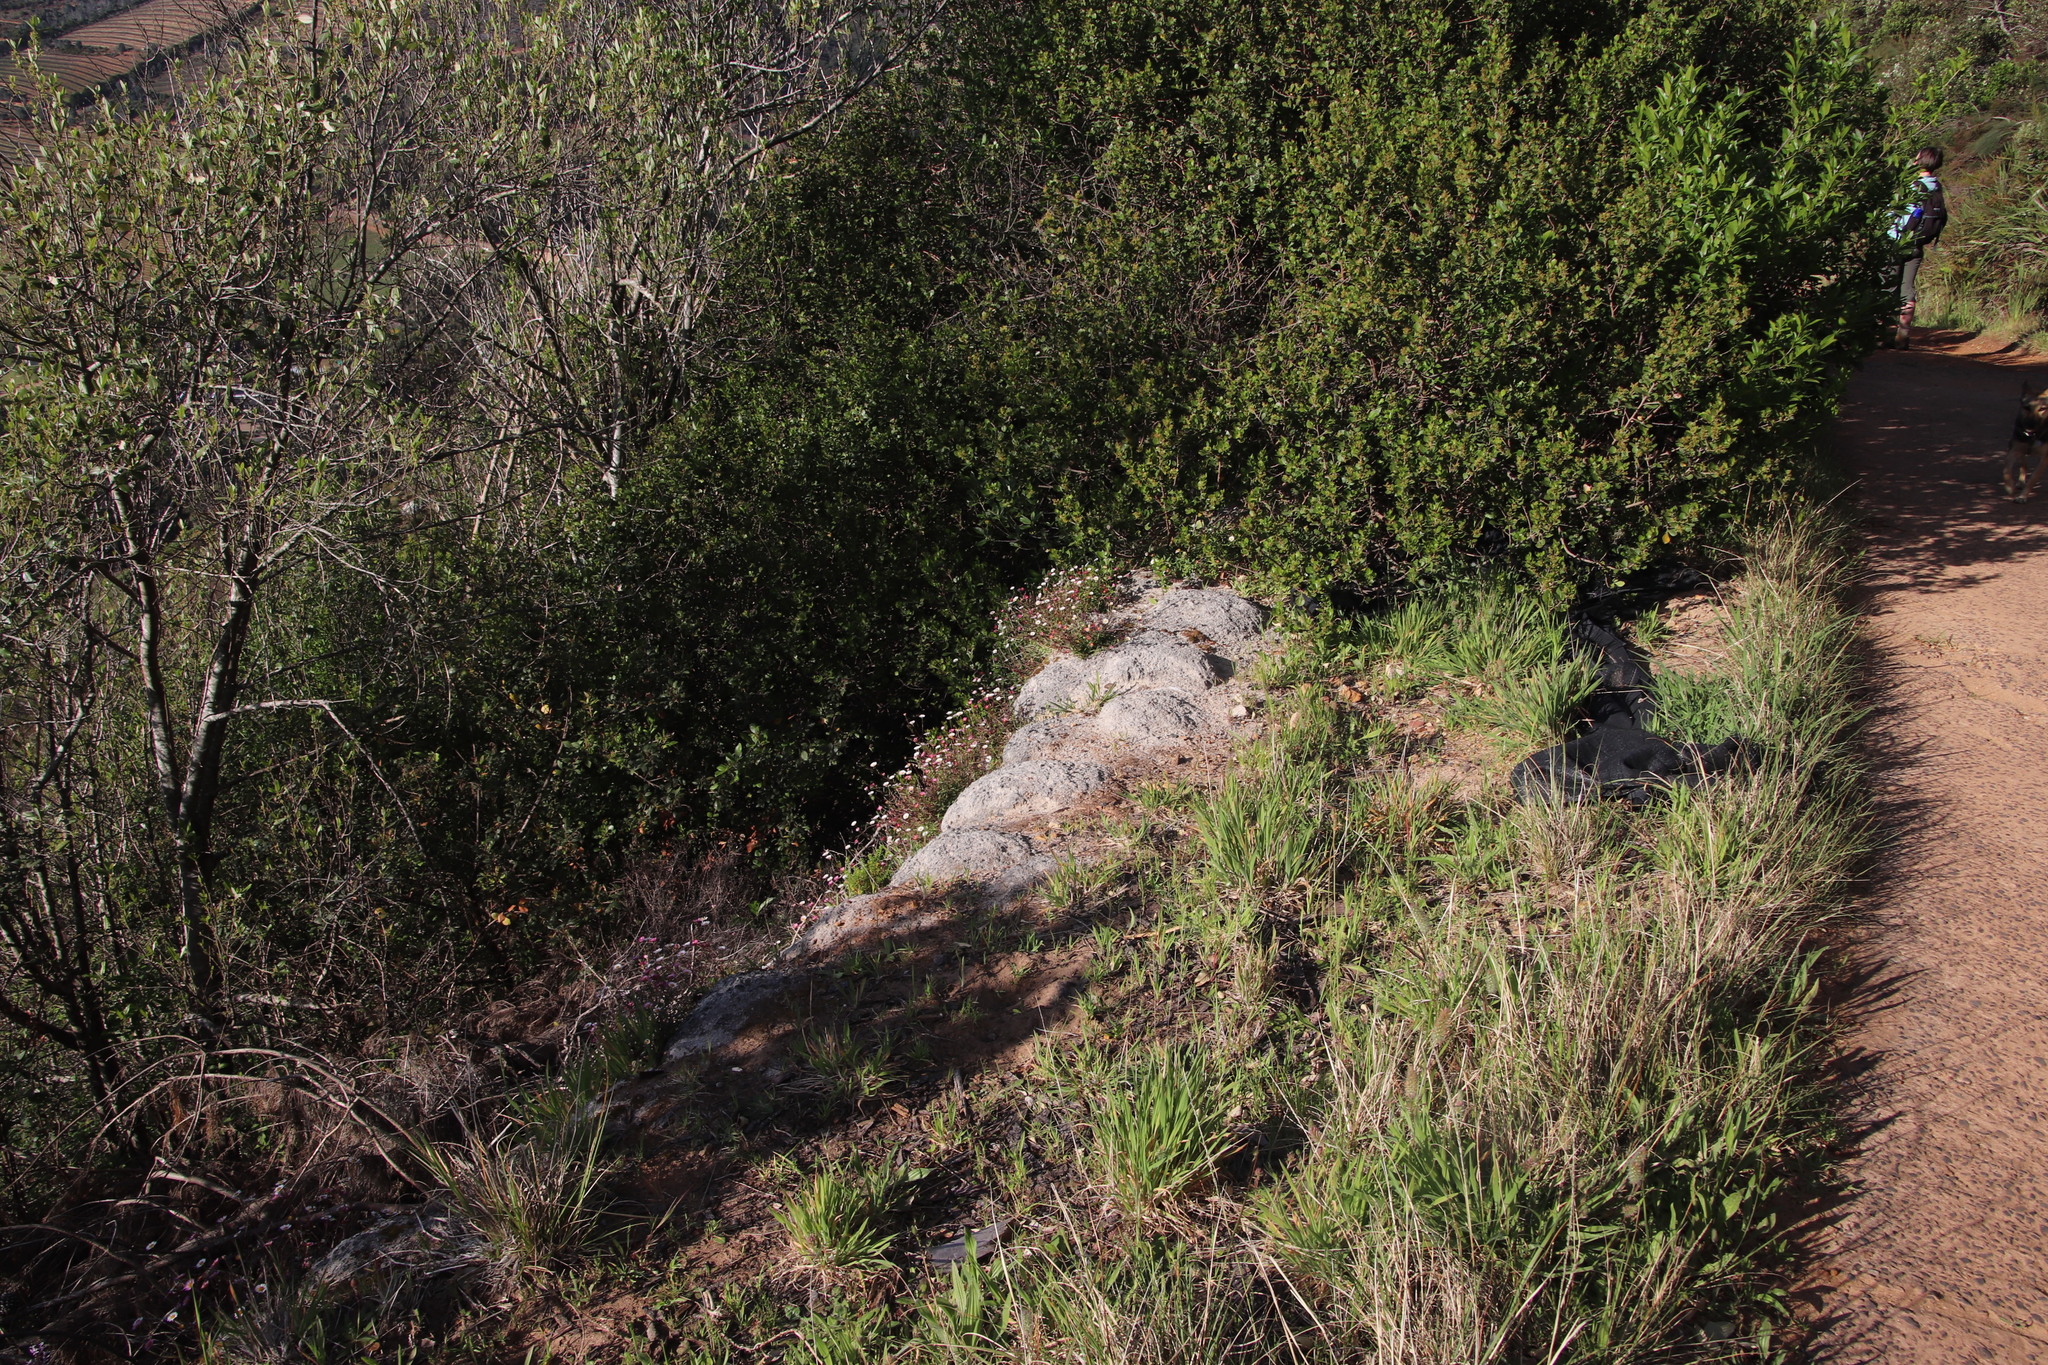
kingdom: Plantae
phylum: Tracheophyta
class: Magnoliopsida
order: Asterales
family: Asteraceae
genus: Erigeron
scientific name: Erigeron karvinskianus
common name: Mexican fleabane
